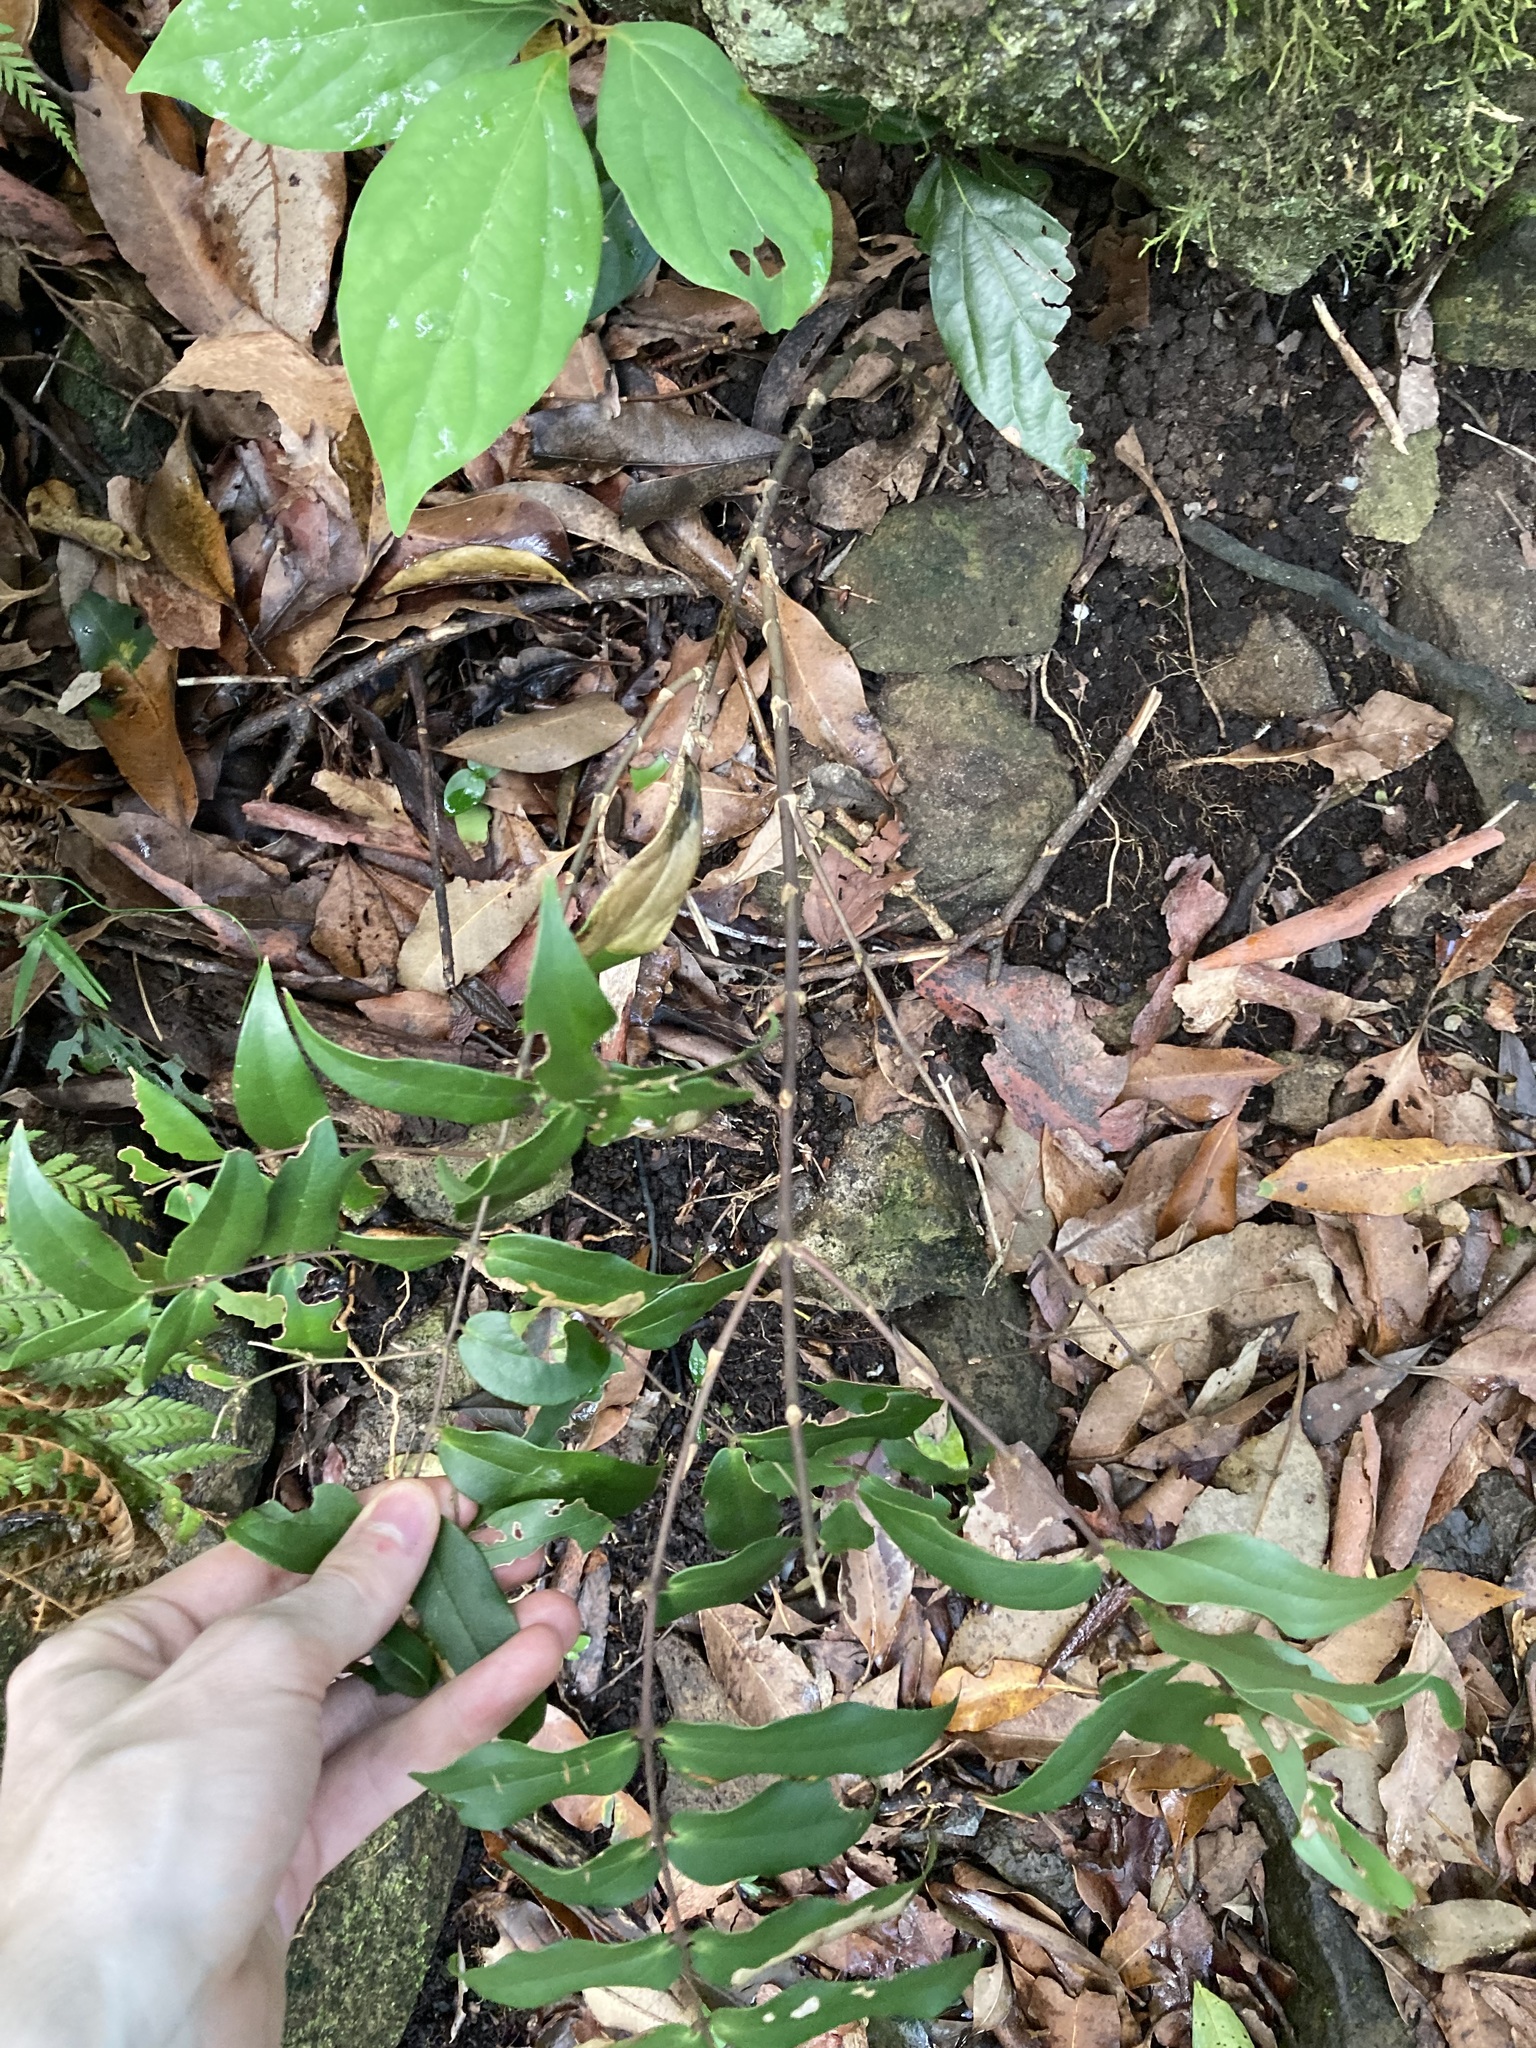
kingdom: Plantae
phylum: Tracheophyta
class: Liliopsida
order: Liliales
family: Ripogonaceae
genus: Ripogonum
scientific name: Ripogonum fawcettianum
